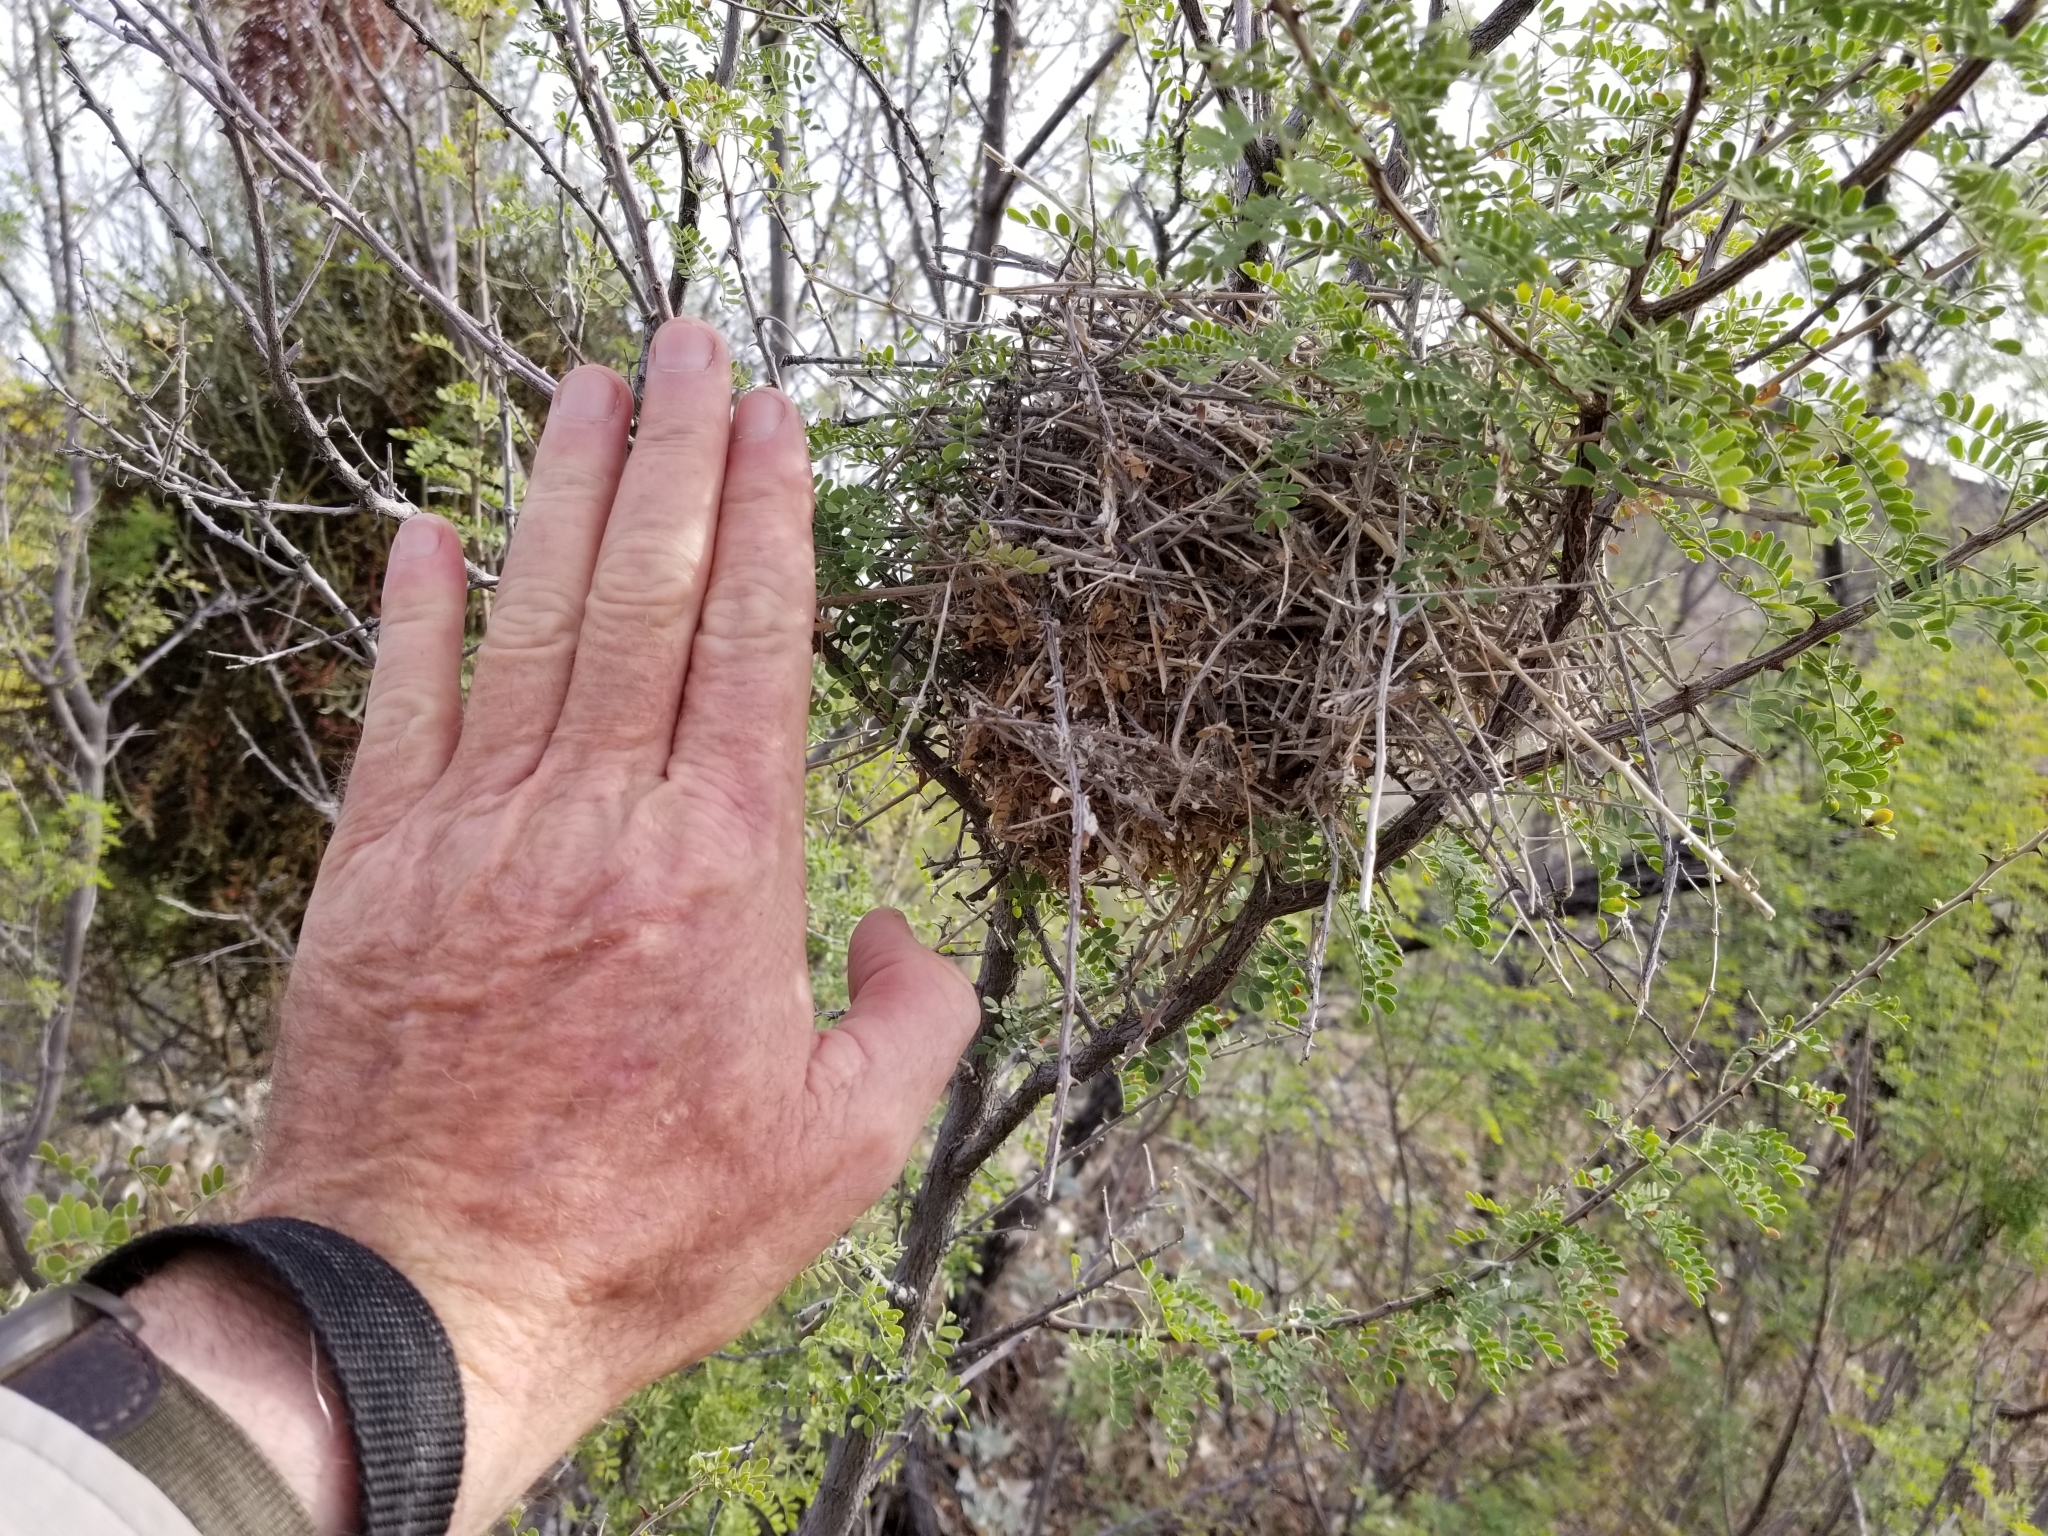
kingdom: Animalia
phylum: Chordata
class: Aves
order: Passeriformes
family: Remizidae
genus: Auriparus
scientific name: Auriparus flaviceps
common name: Verdin
